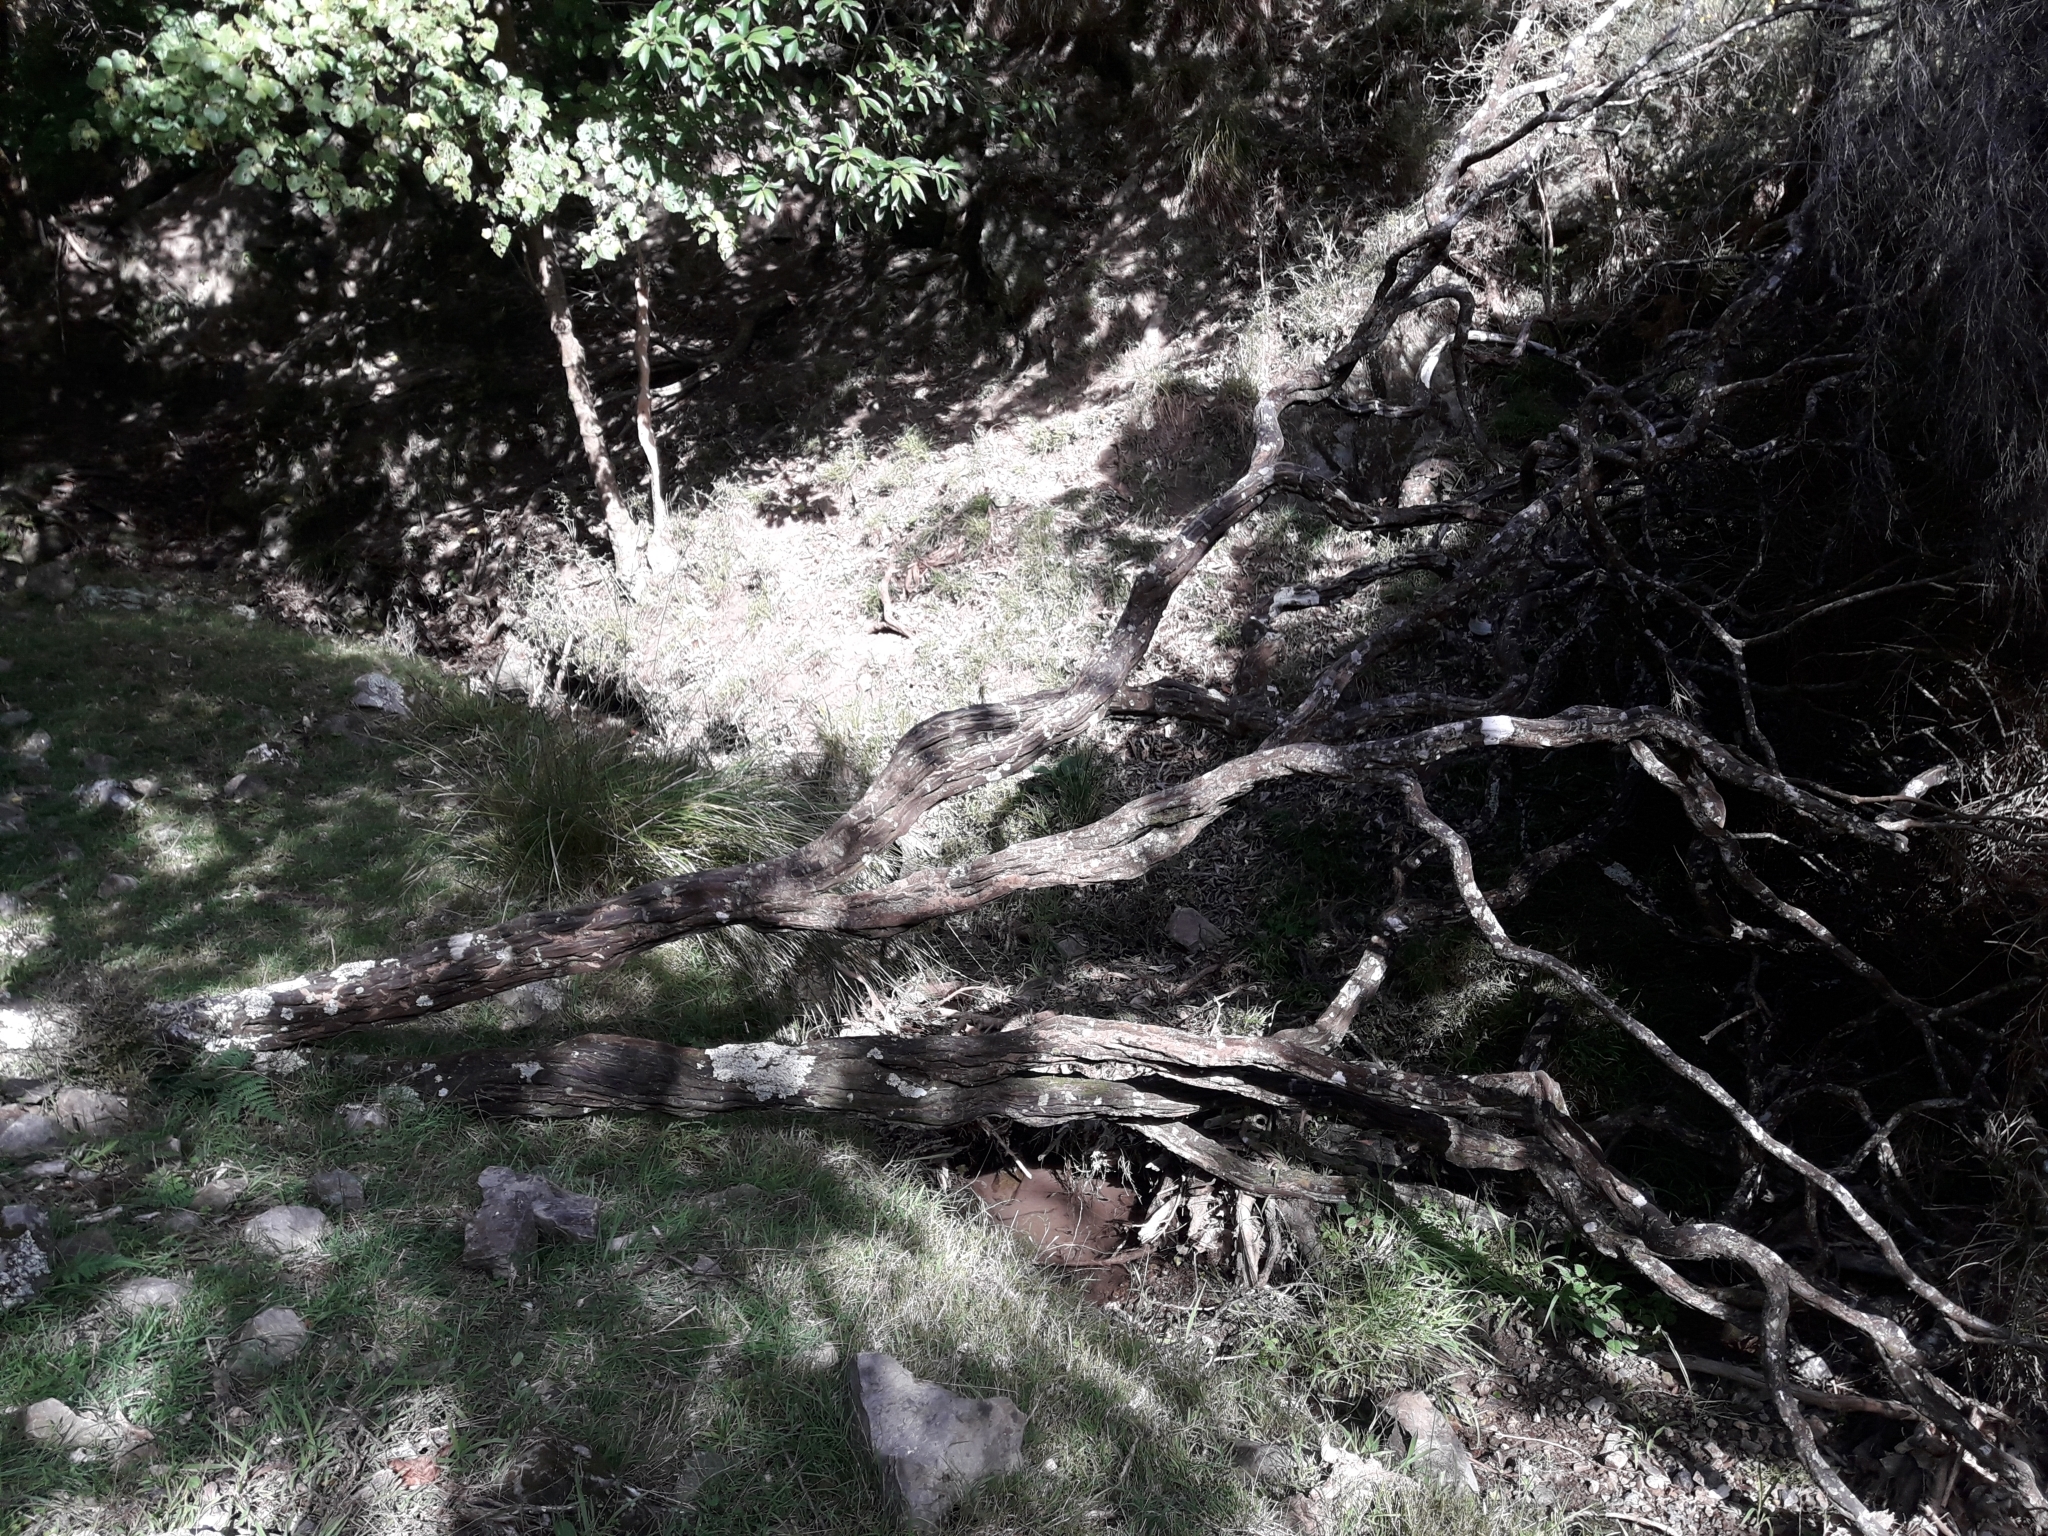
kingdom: Plantae
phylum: Tracheophyta
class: Magnoliopsida
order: Fabales
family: Fabaceae
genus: Carmichaelia
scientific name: Carmichaelia australis
